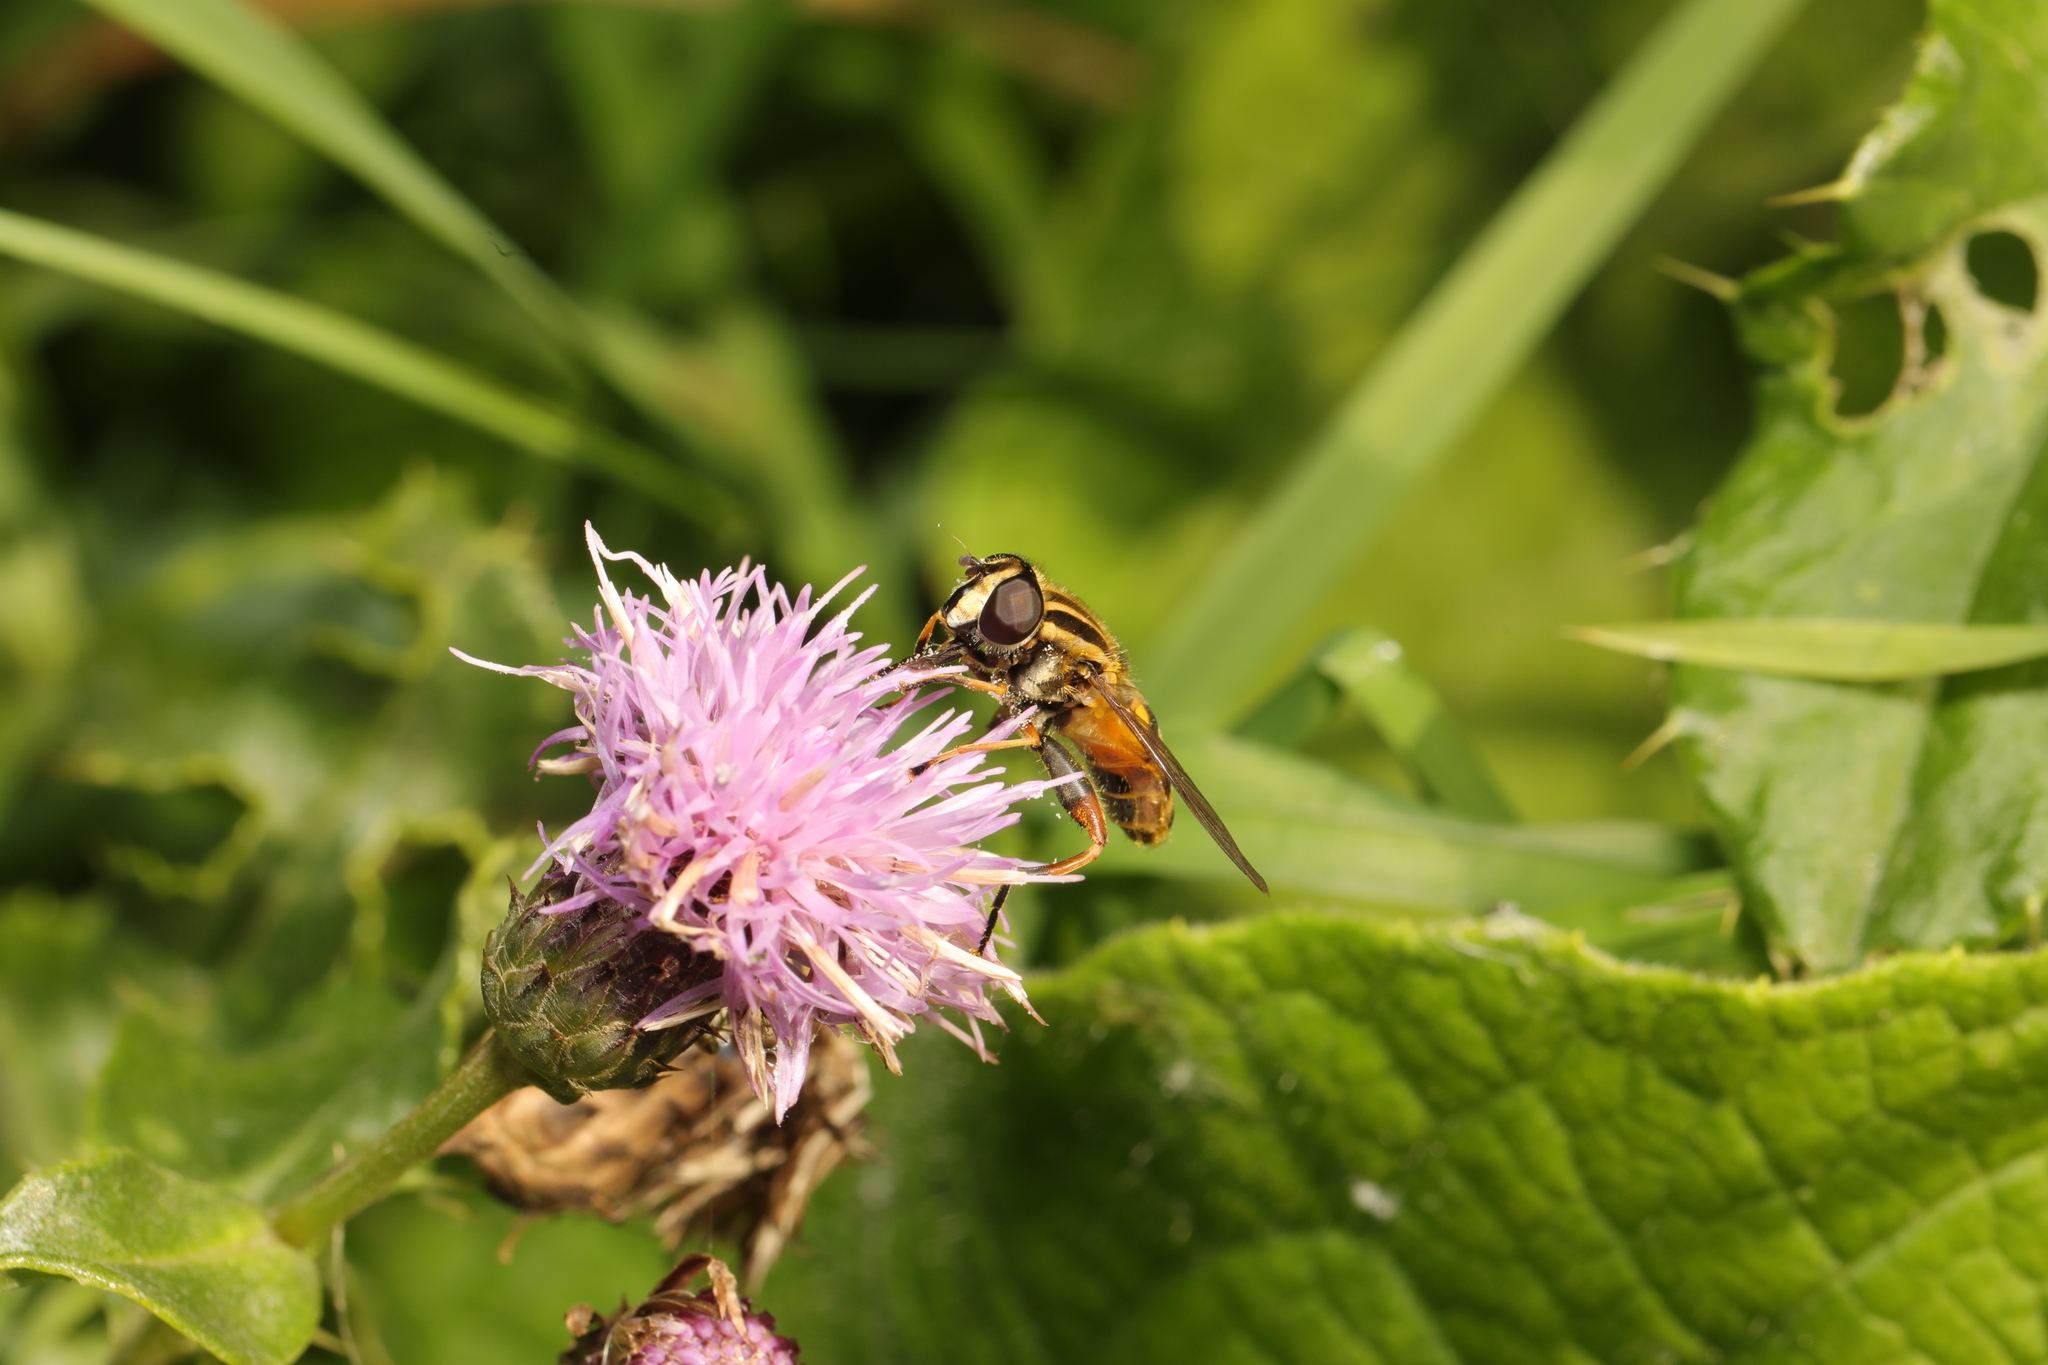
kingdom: Animalia
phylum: Arthropoda
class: Insecta
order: Diptera
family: Syrphidae
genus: Helophilus
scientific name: Helophilus pendulus
